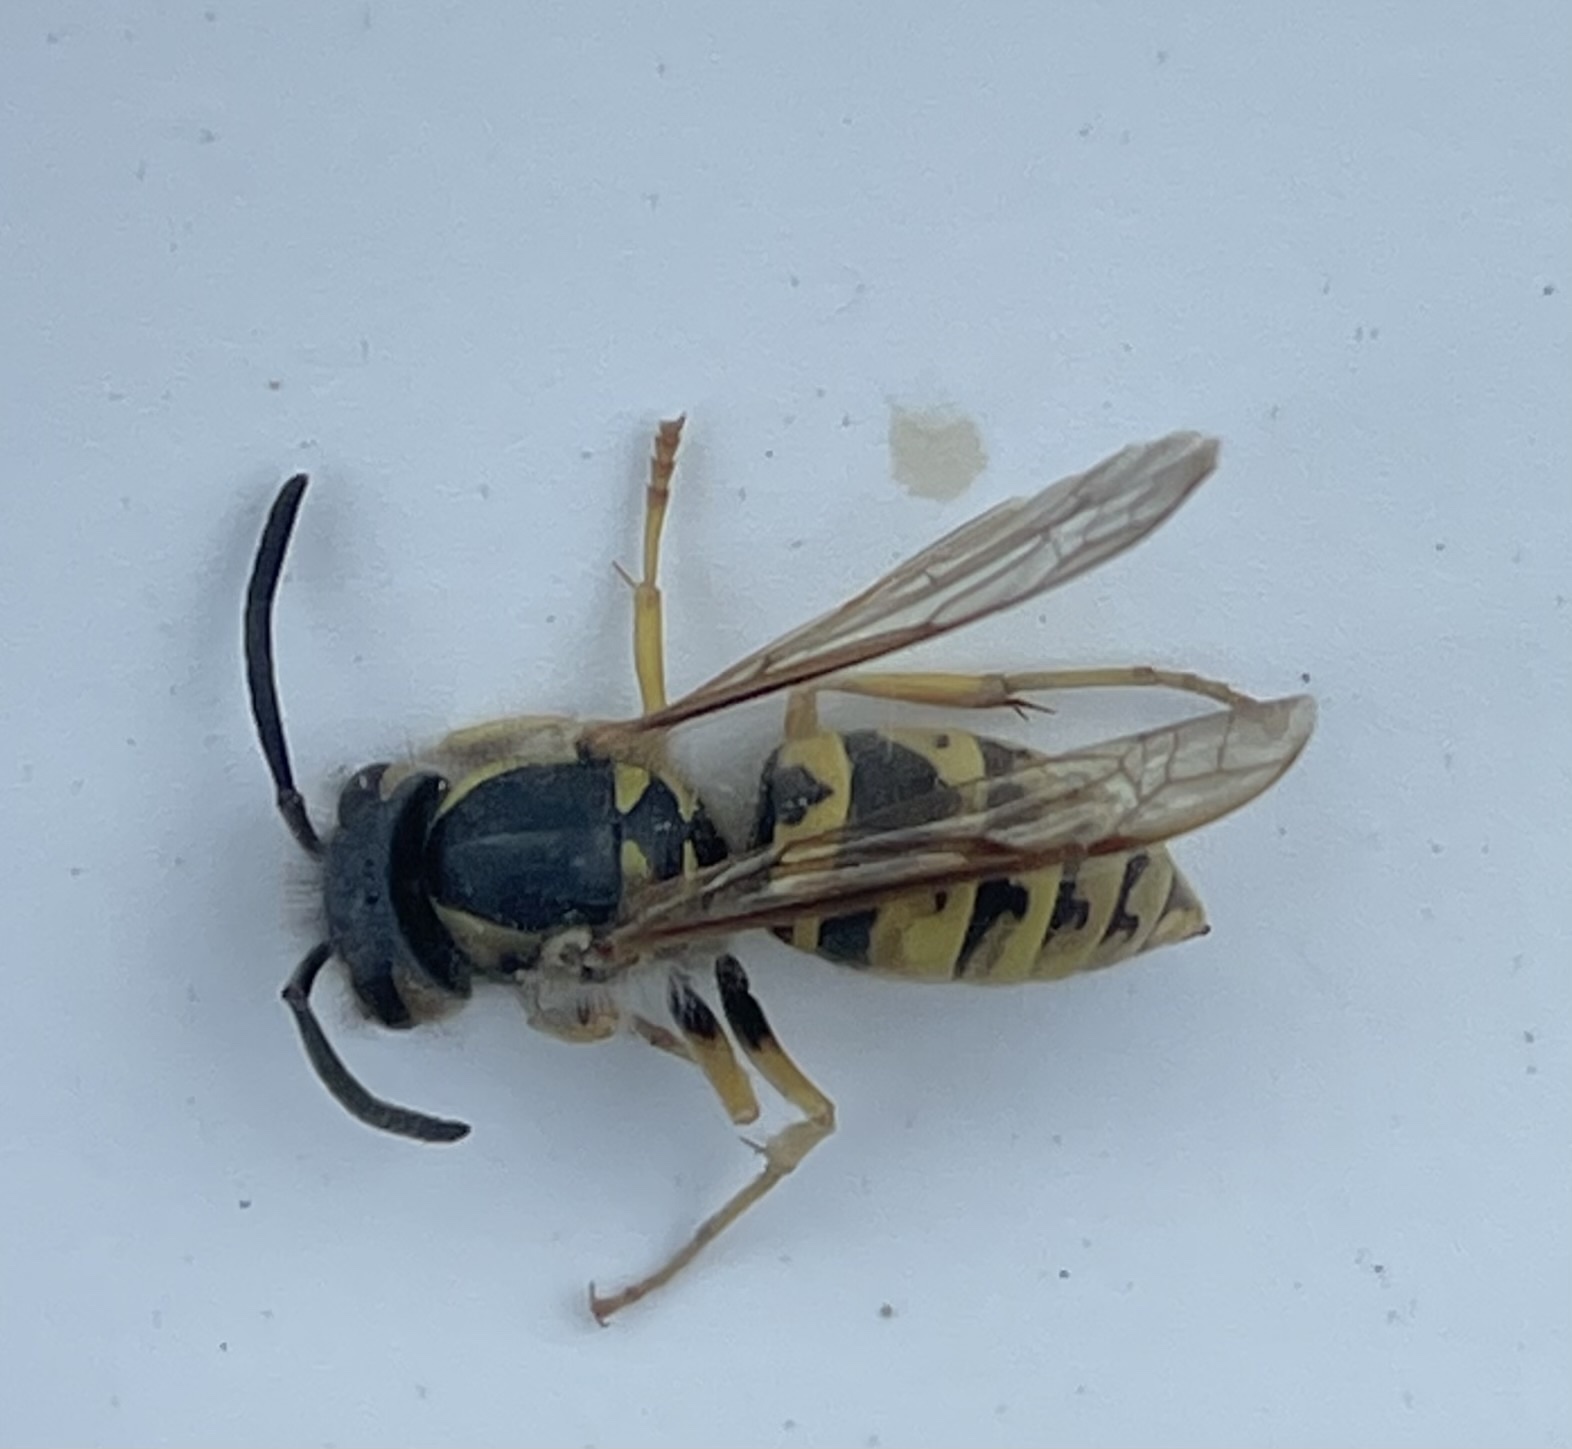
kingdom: Animalia
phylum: Arthropoda
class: Insecta
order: Hymenoptera
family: Vespidae
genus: Vespula
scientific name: Vespula germanica
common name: German wasp
